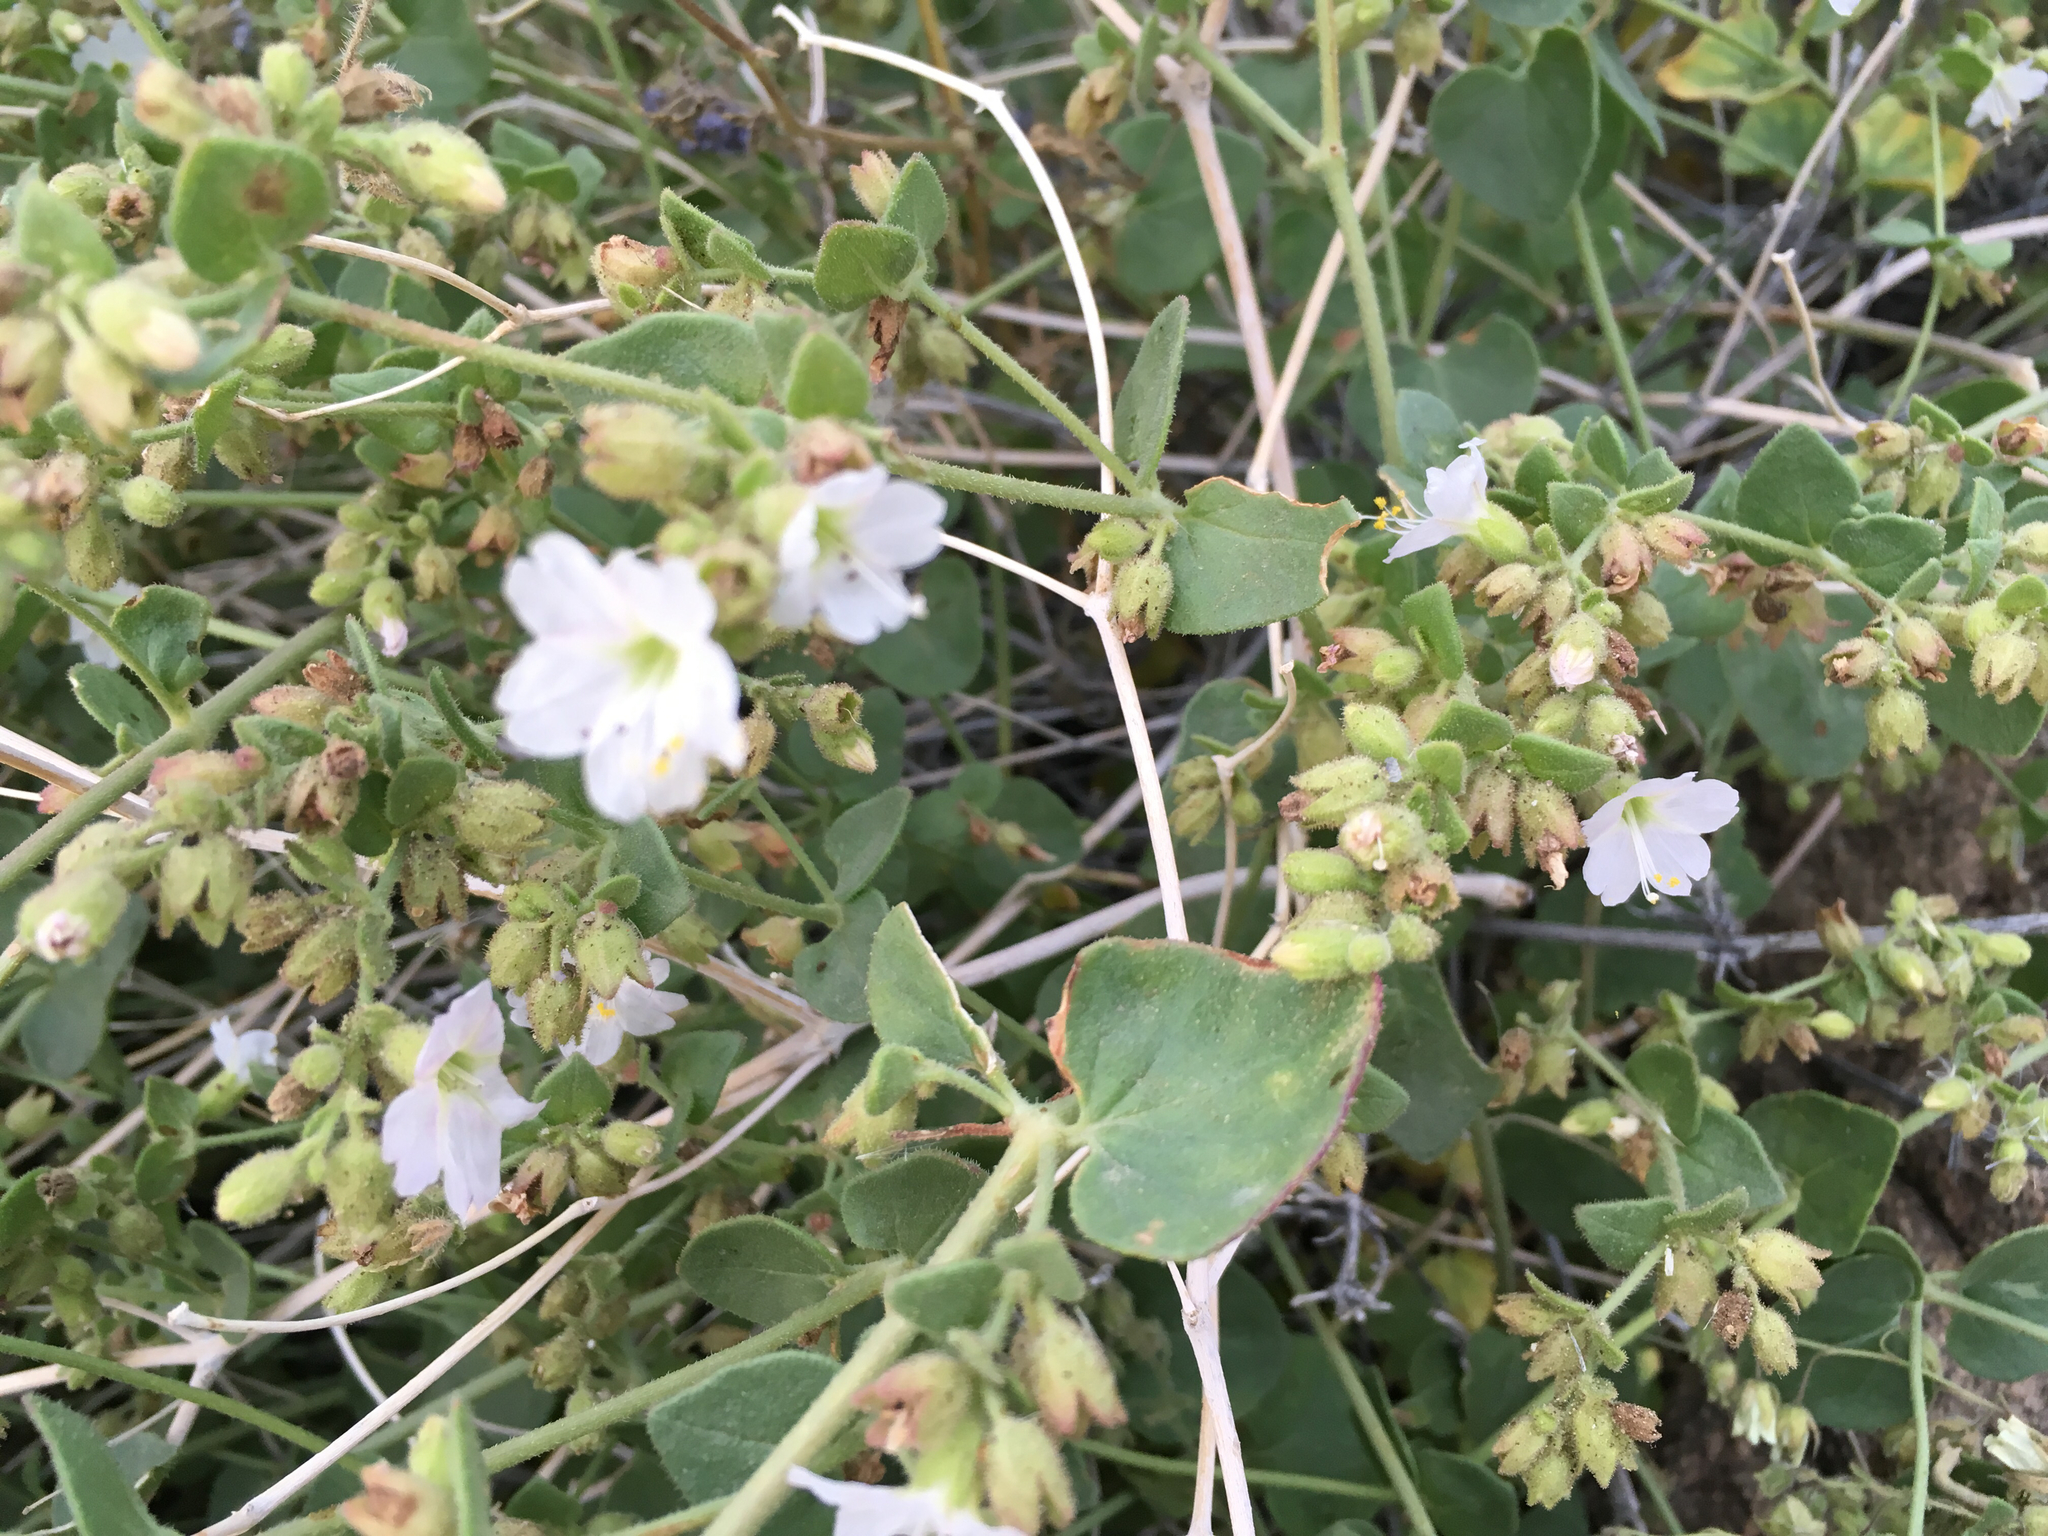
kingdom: Plantae
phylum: Tracheophyta
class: Magnoliopsida
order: Caryophyllales
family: Nyctaginaceae
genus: Mirabilis
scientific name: Mirabilis laevis
